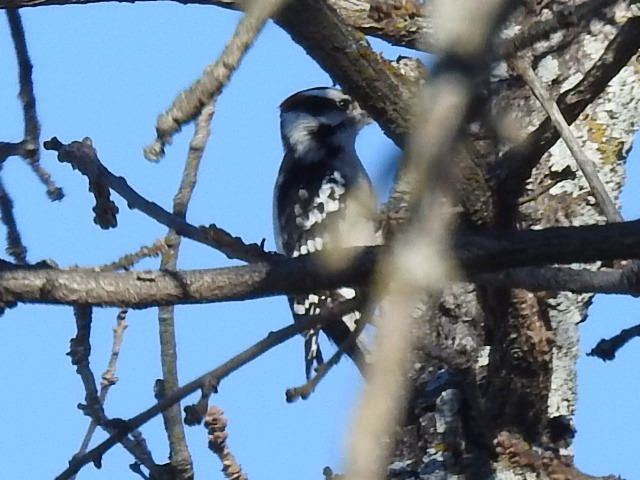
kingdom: Animalia
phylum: Chordata
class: Aves
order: Piciformes
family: Picidae
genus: Dryobates
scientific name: Dryobates pubescens
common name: Downy woodpecker
